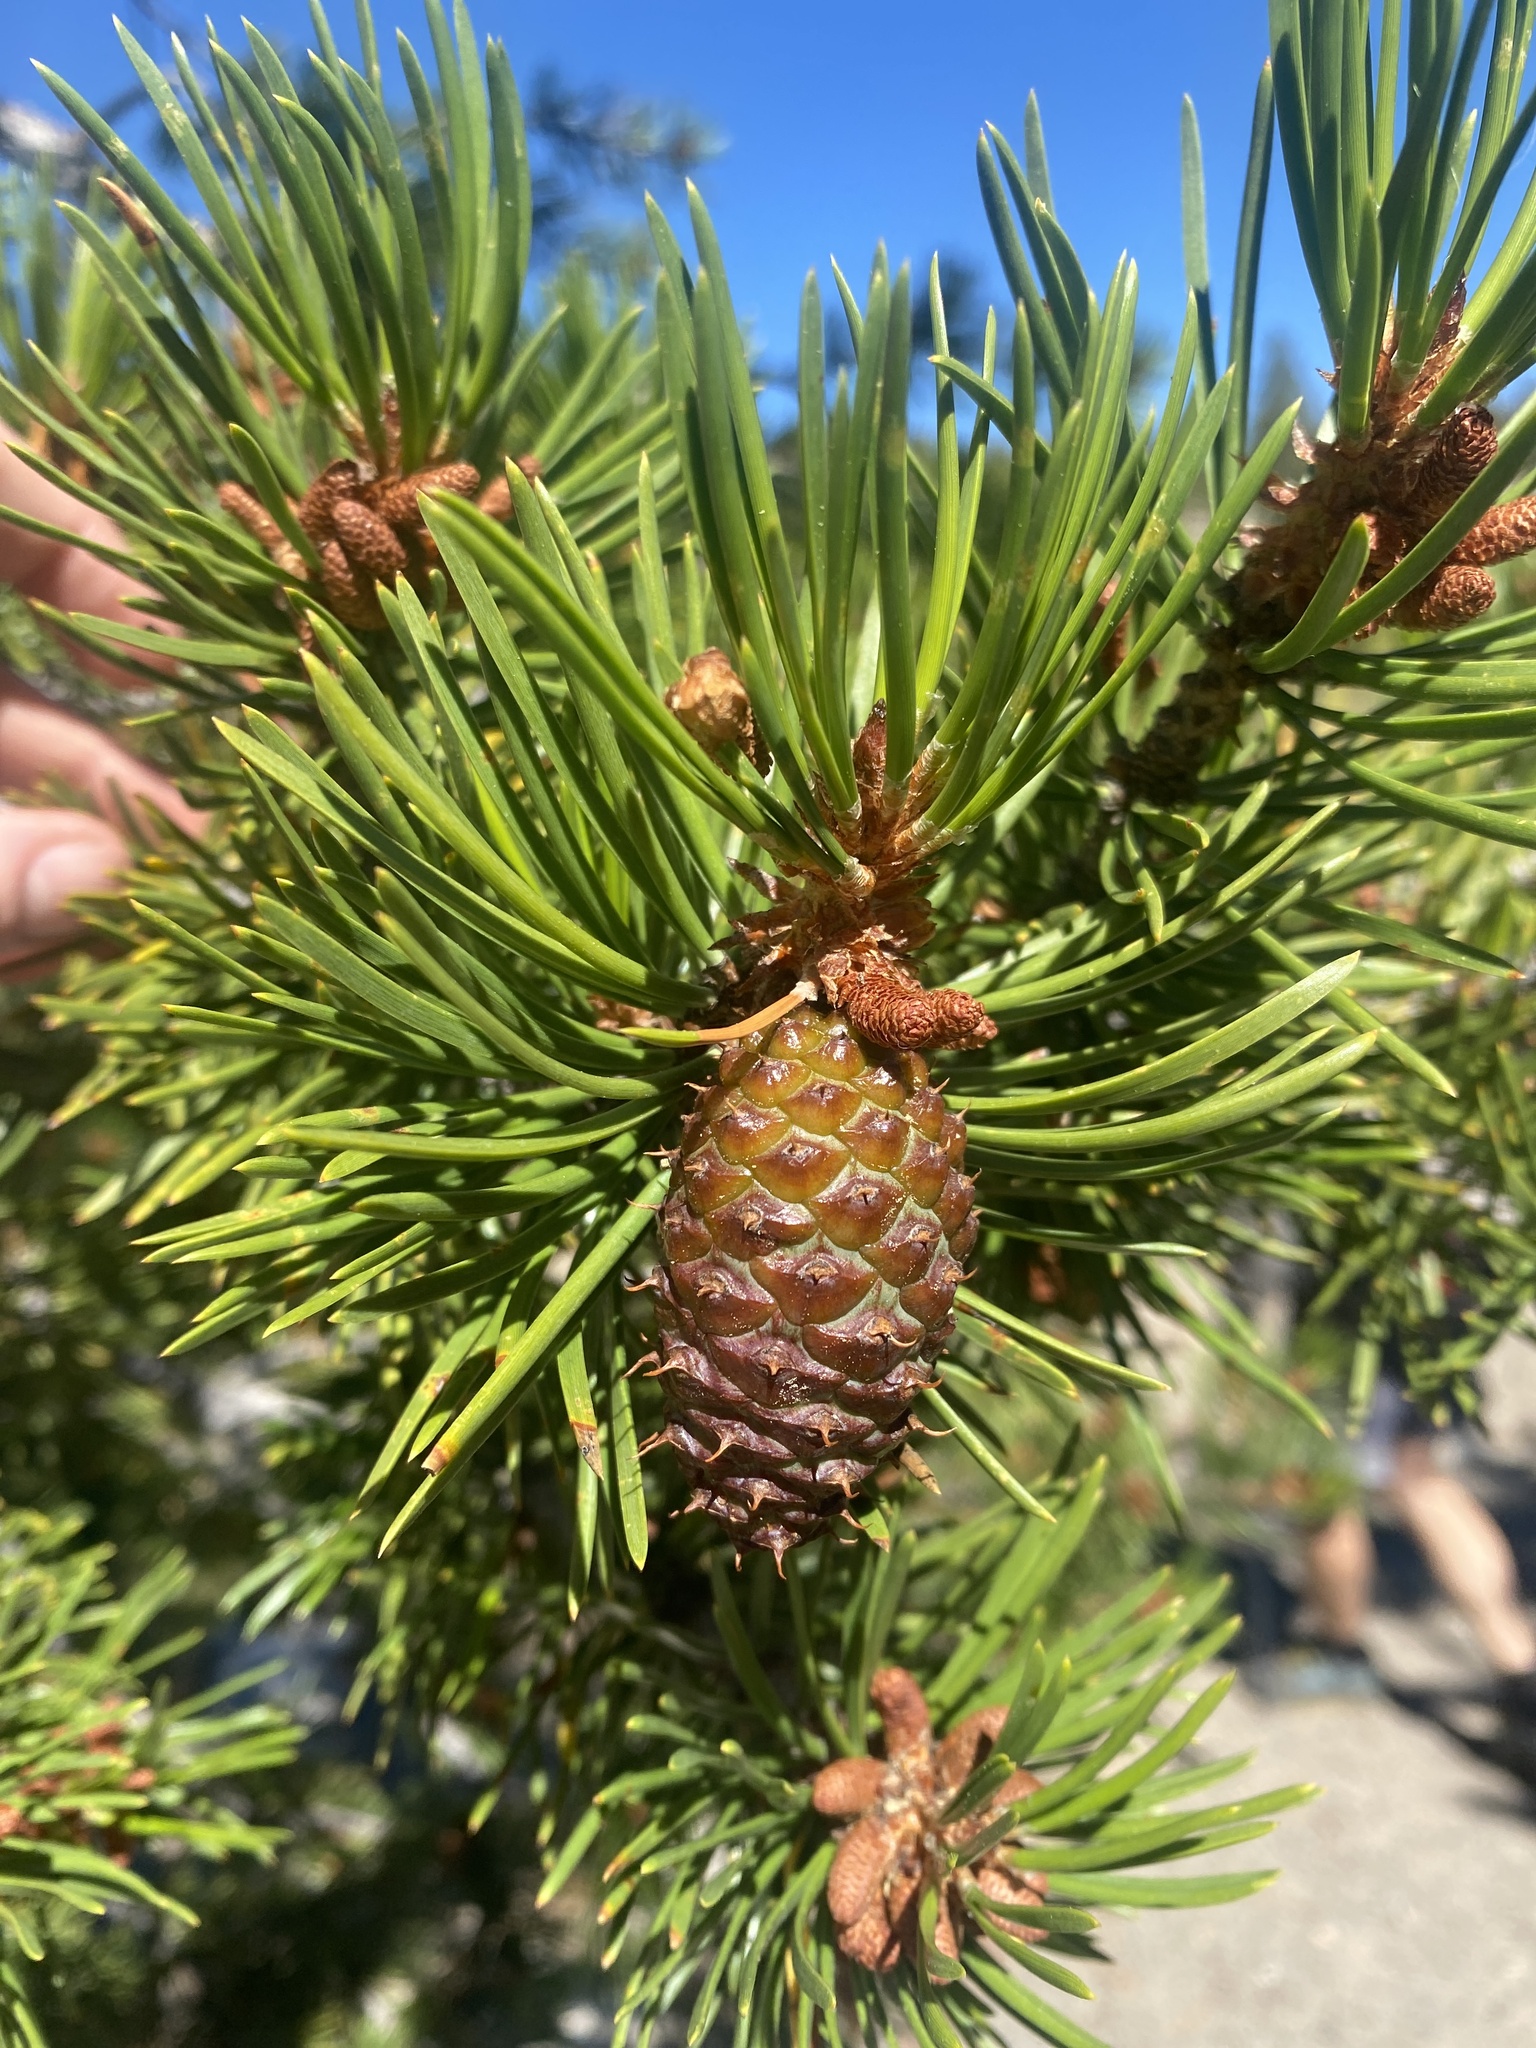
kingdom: Plantae
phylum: Tracheophyta
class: Pinopsida
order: Pinales
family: Pinaceae
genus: Pinus
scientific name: Pinus contorta
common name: Lodgepole pine
